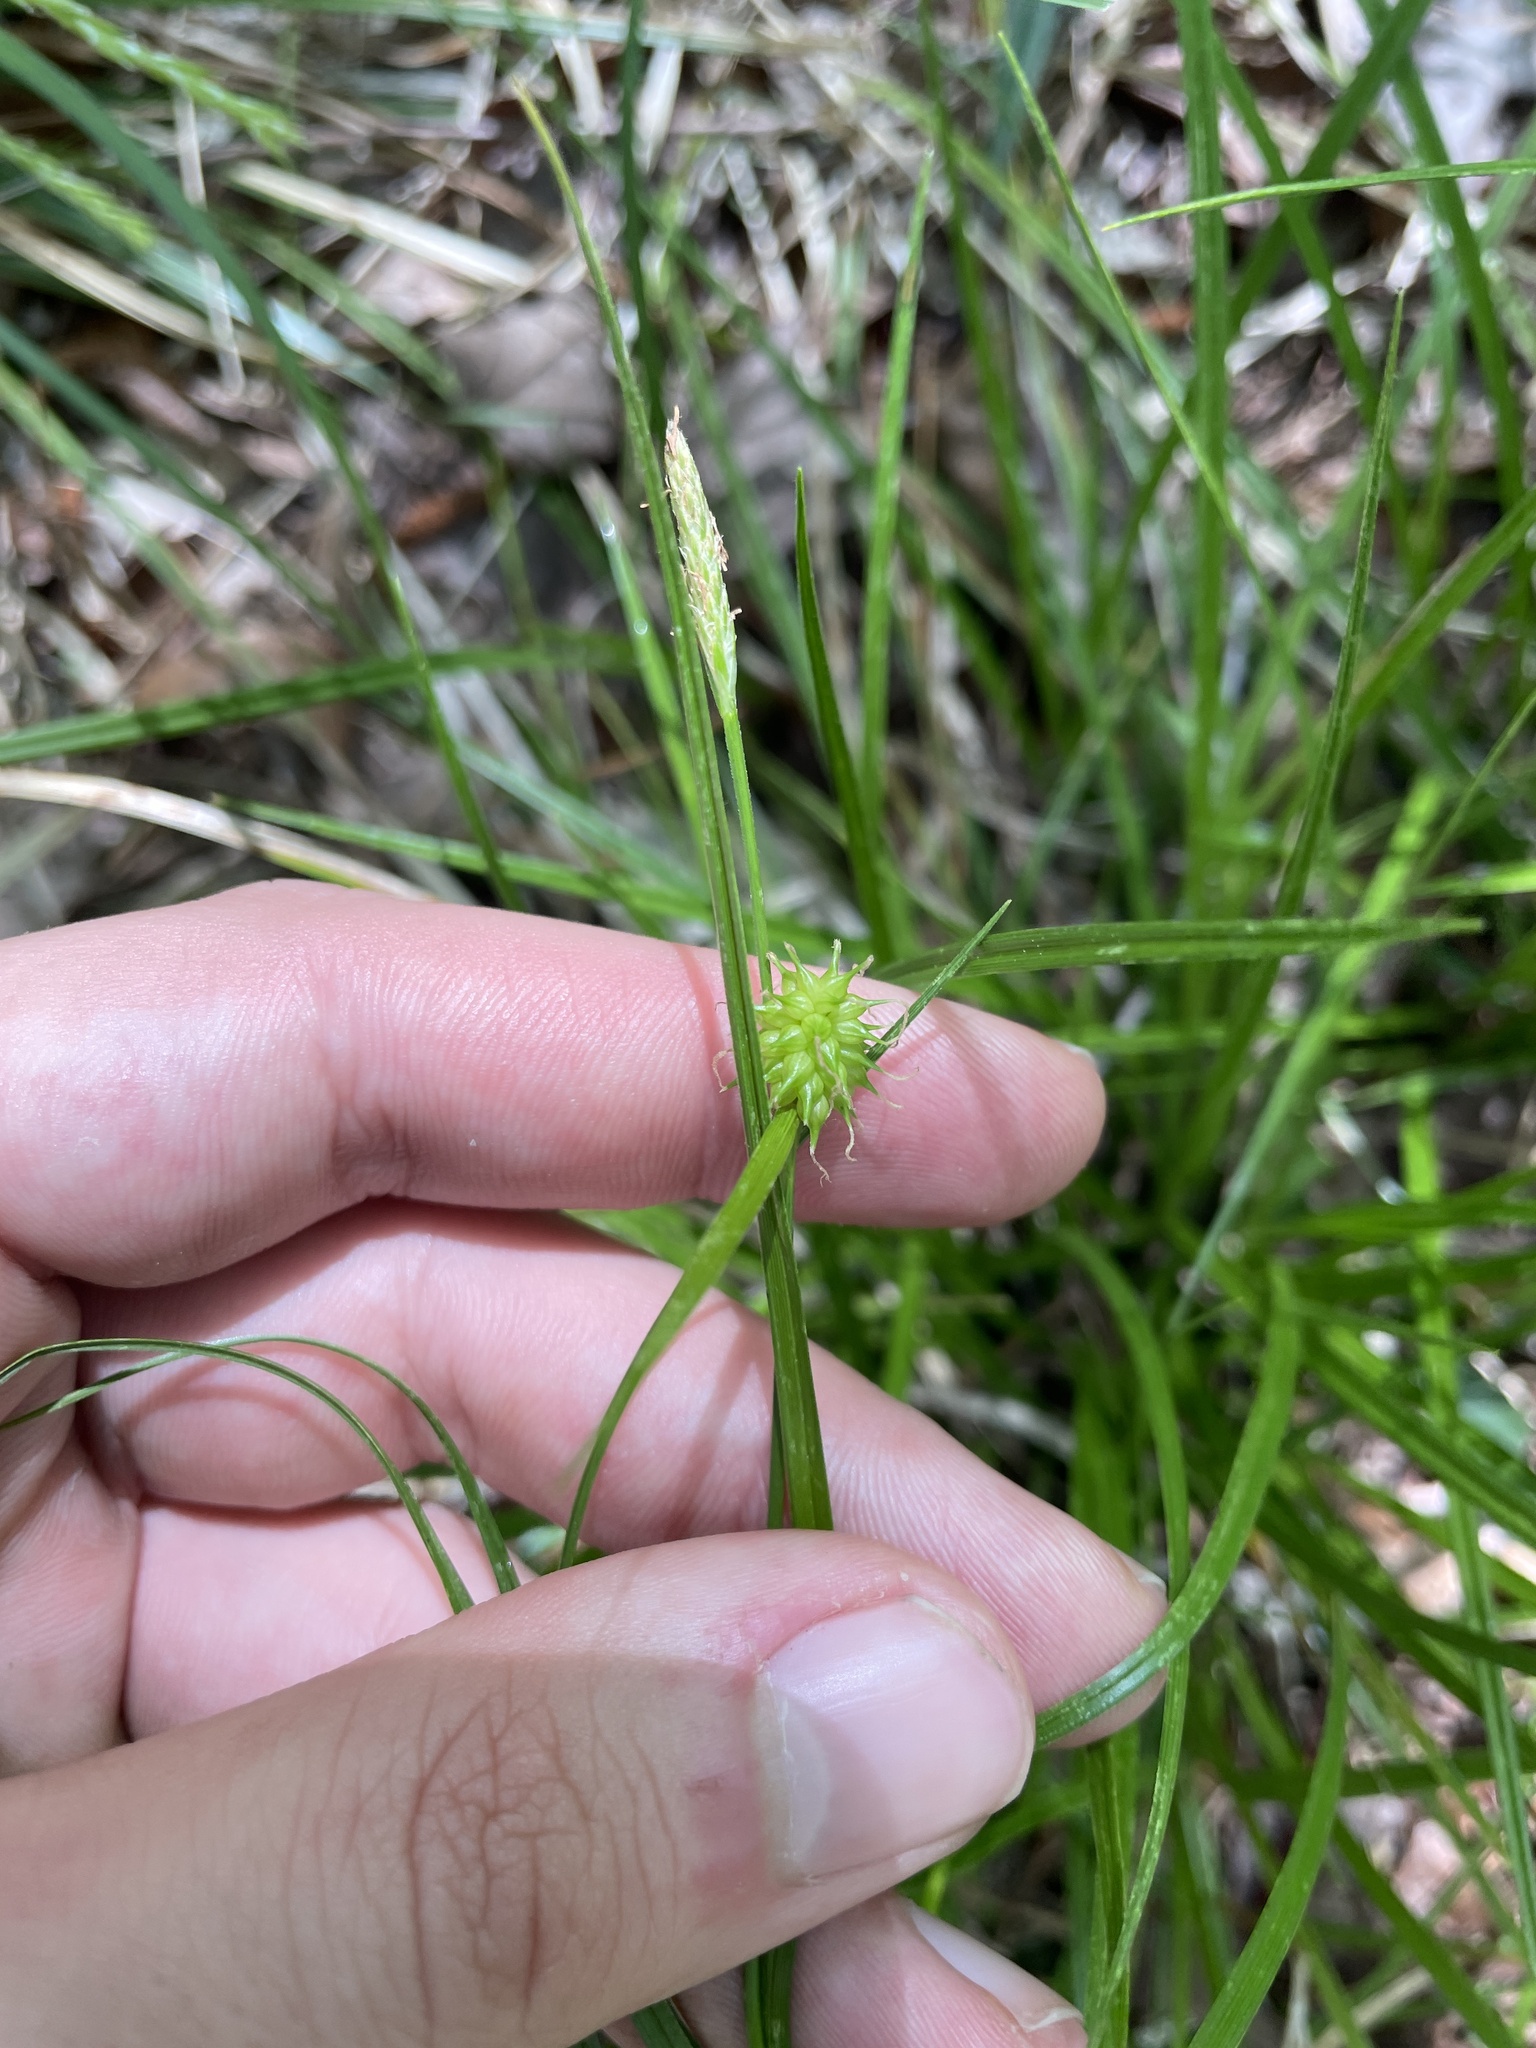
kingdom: Plantae
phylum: Tracheophyta
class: Liliopsida
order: Poales
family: Cyperaceae
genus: Carex
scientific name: Carex lutea
